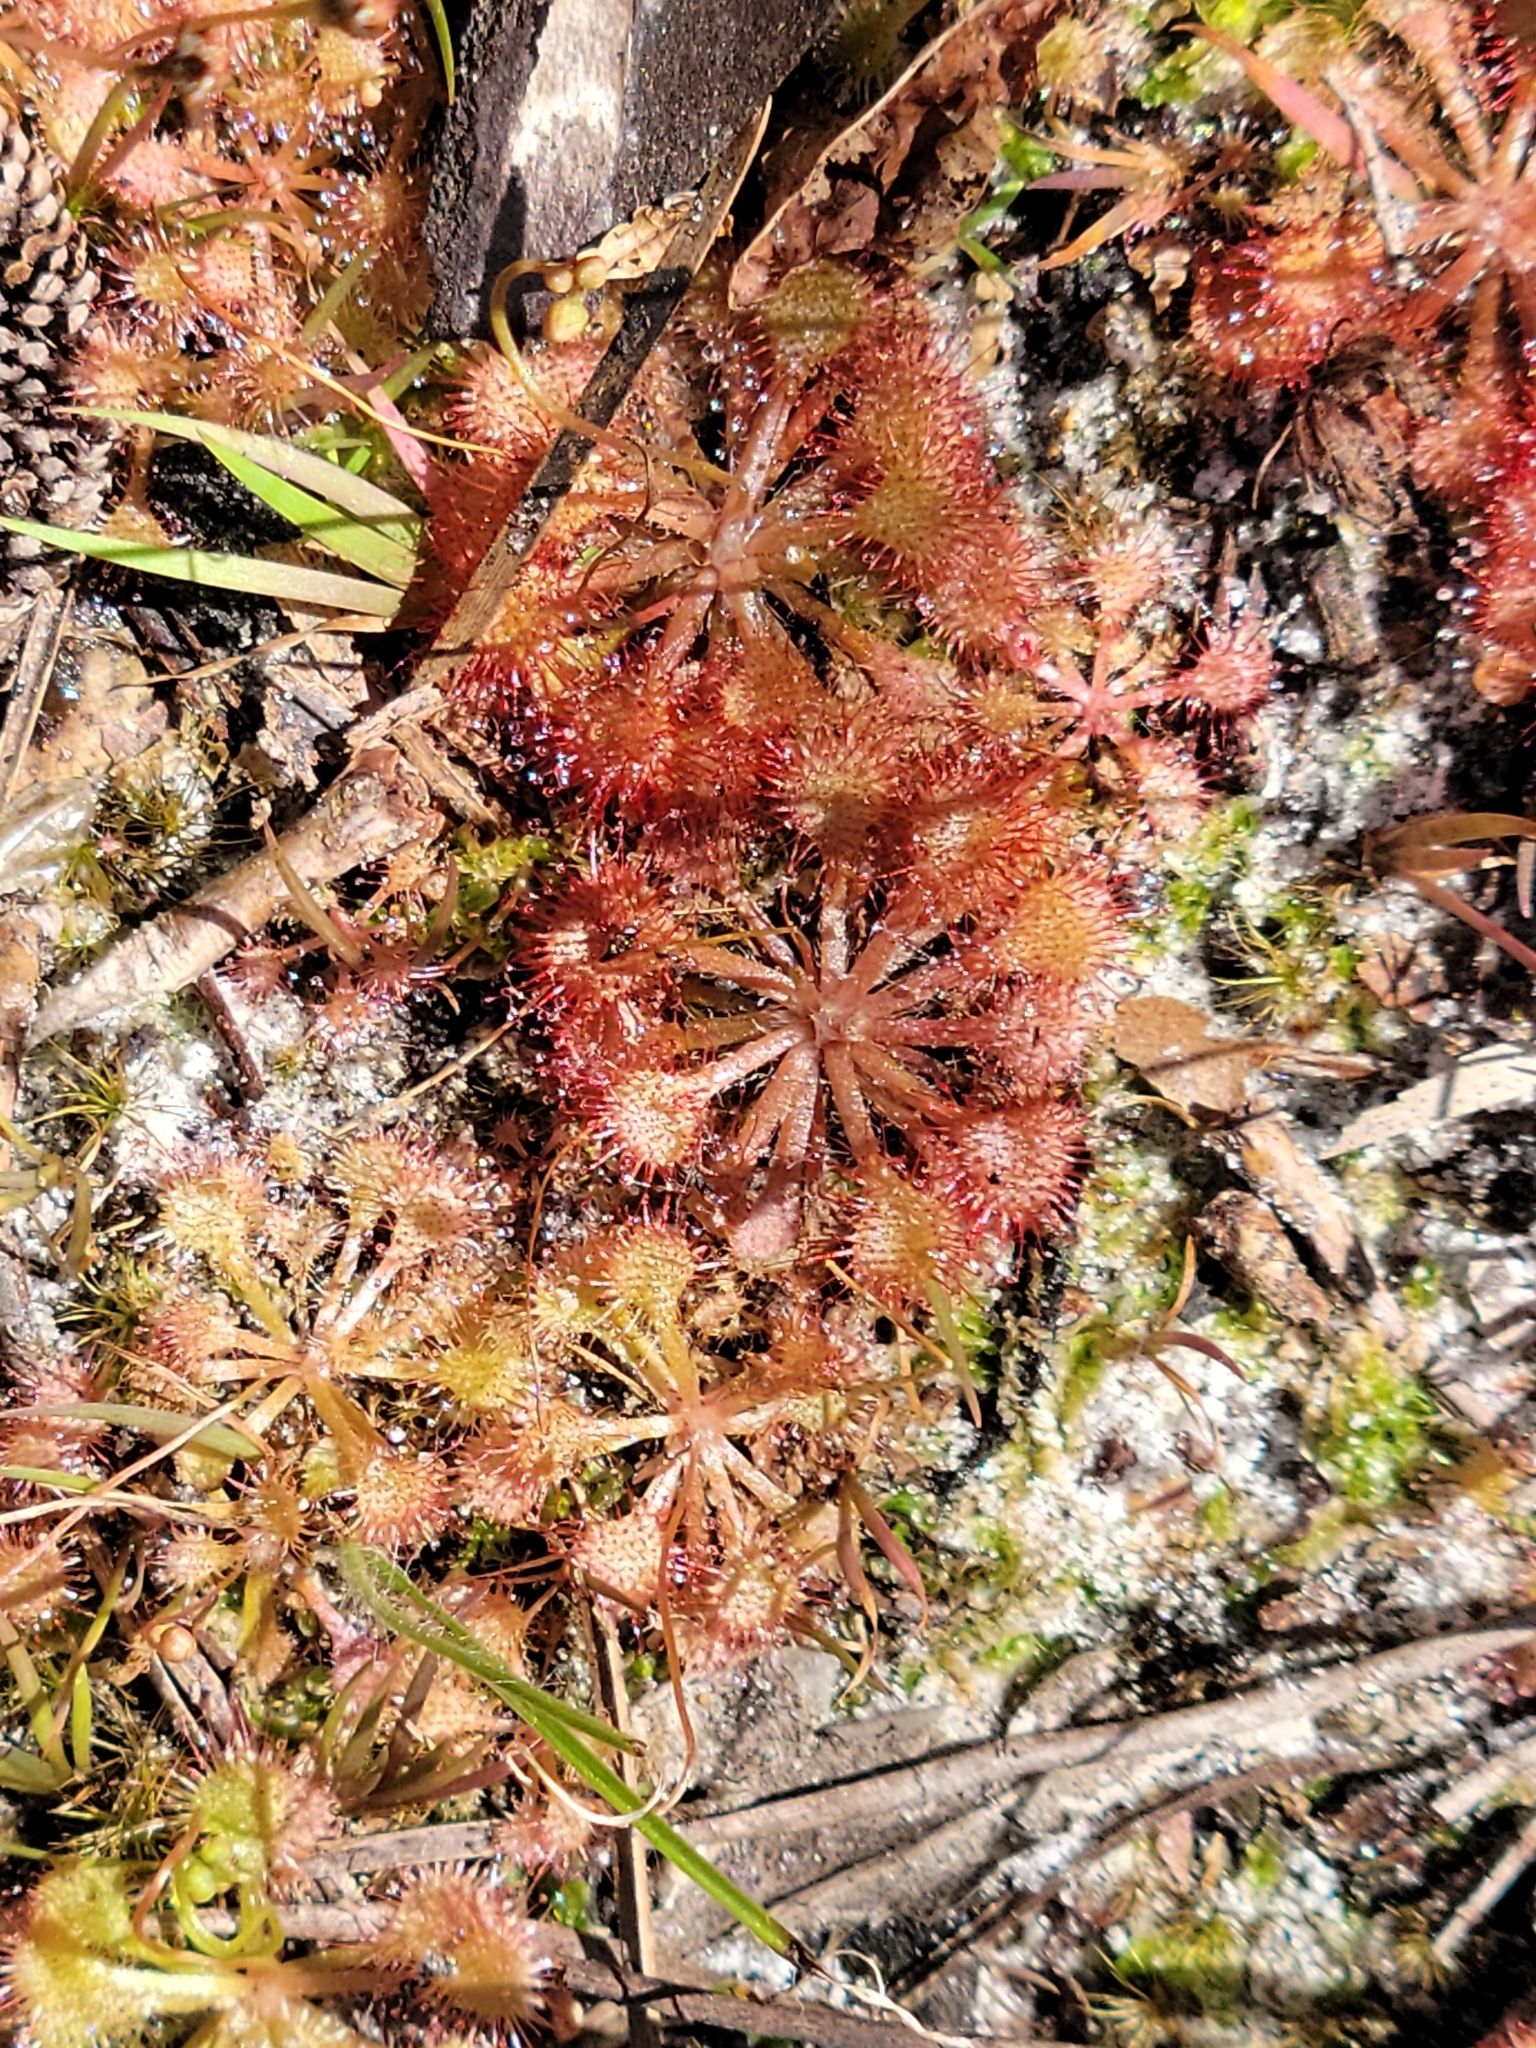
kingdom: Plantae
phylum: Tracheophyta
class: Magnoliopsida
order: Caryophyllales
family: Droseraceae
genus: Drosera
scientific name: Drosera capillaris
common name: Pink sundew
